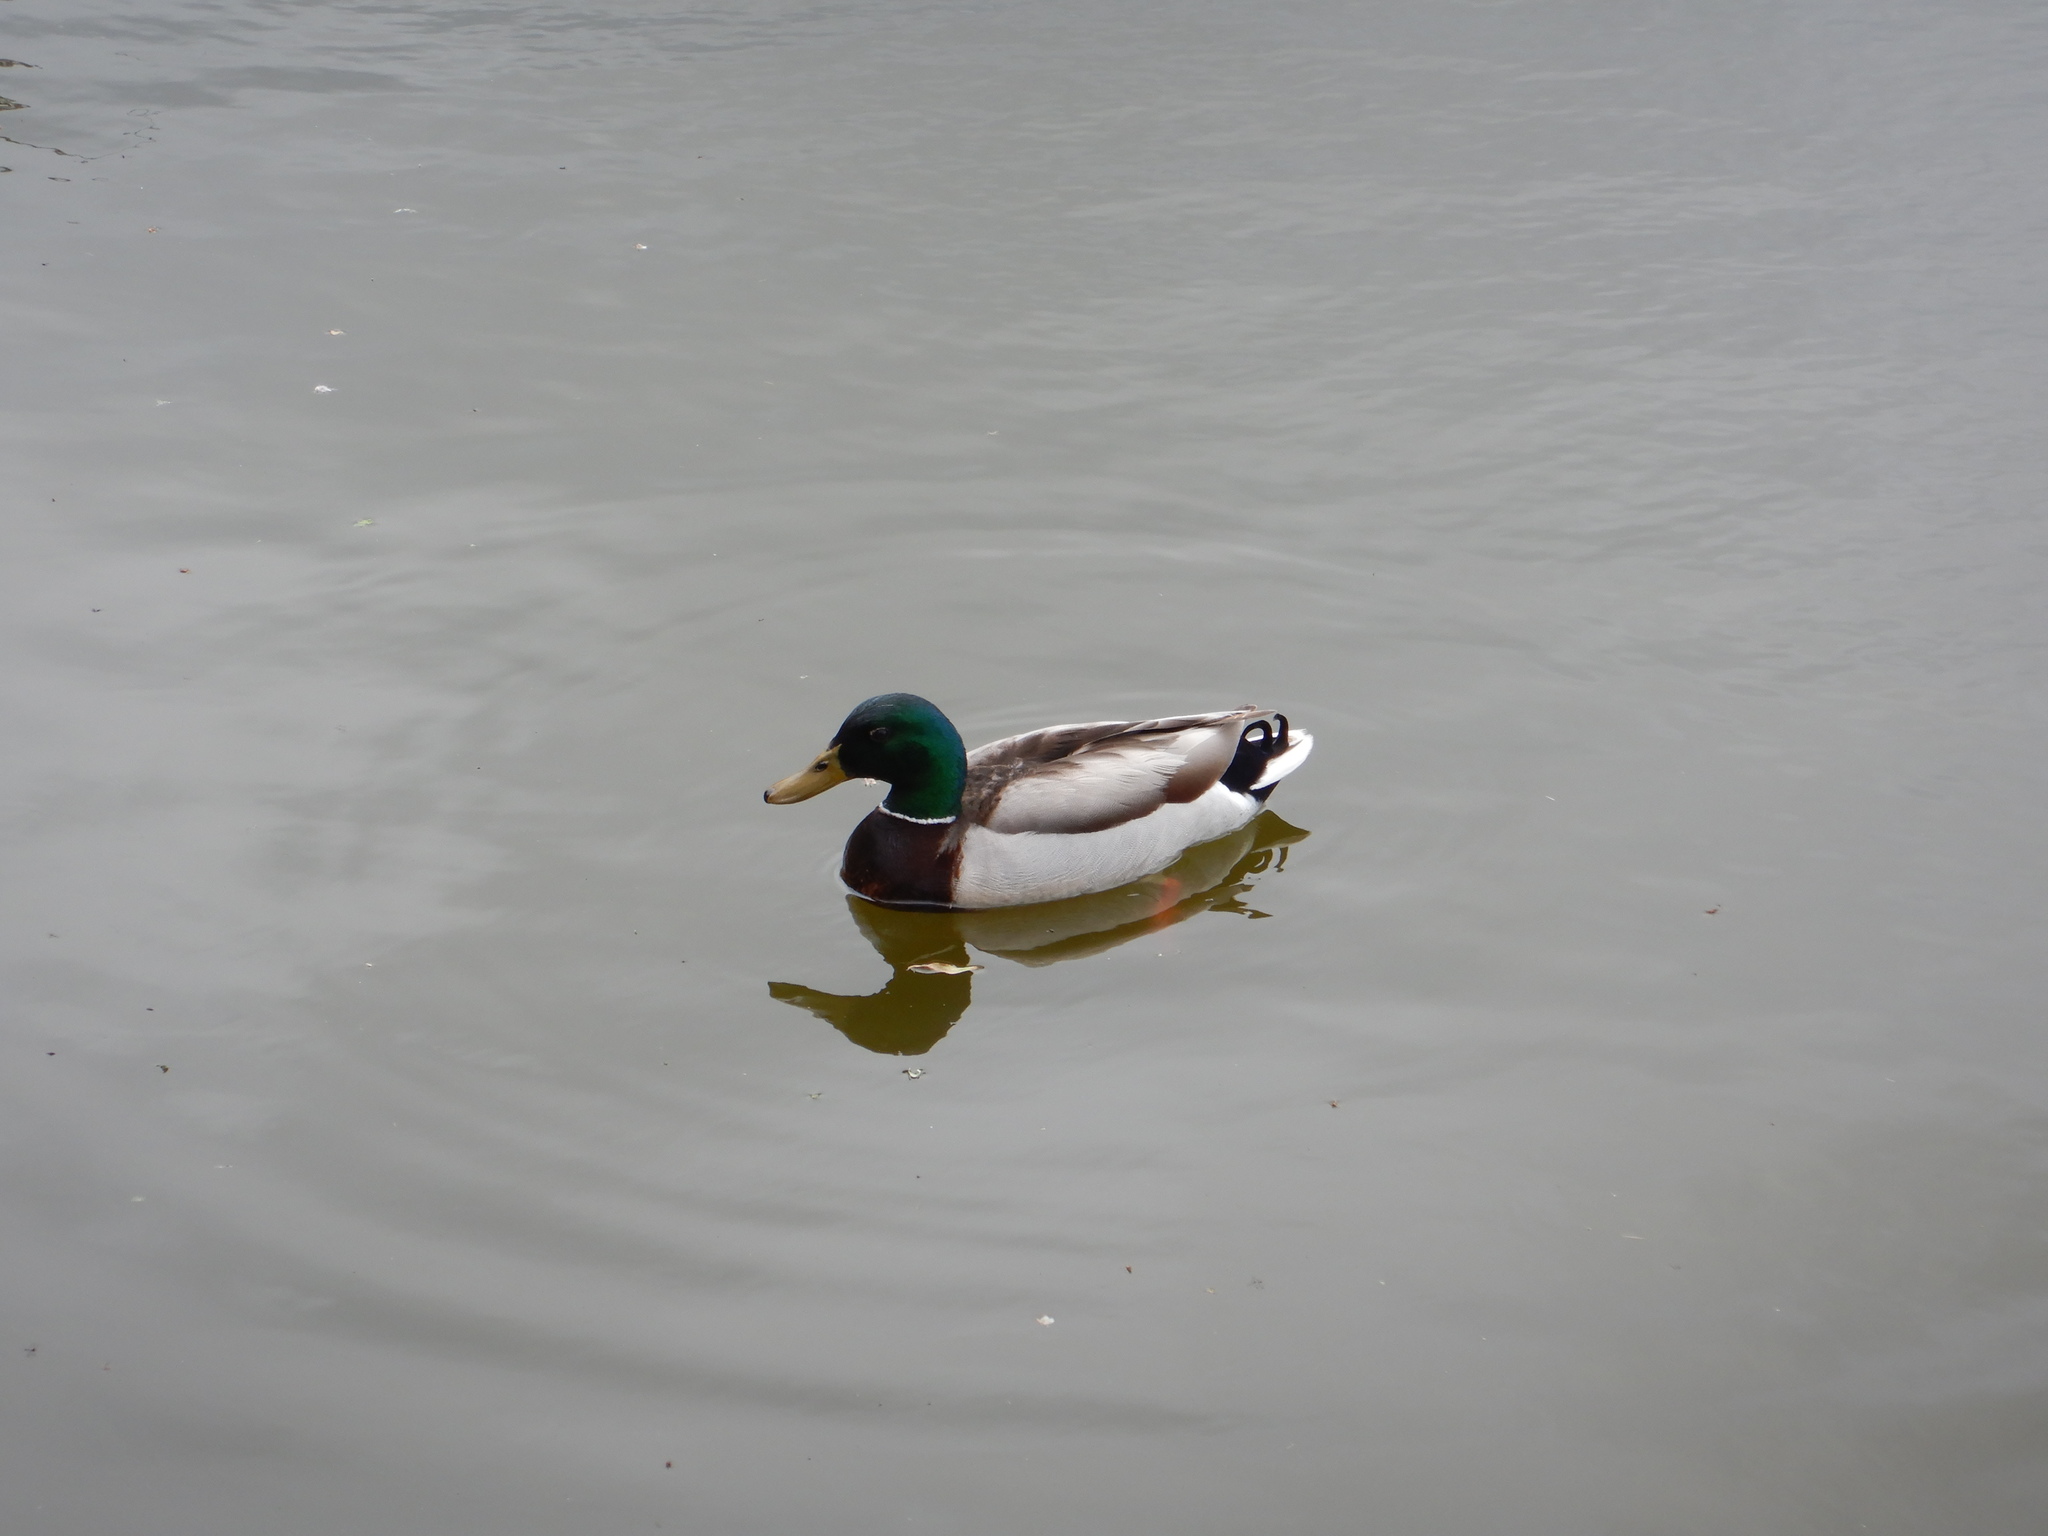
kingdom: Animalia
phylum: Chordata
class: Aves
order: Anseriformes
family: Anatidae
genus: Anas
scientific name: Anas platyrhynchos
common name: Mallard
